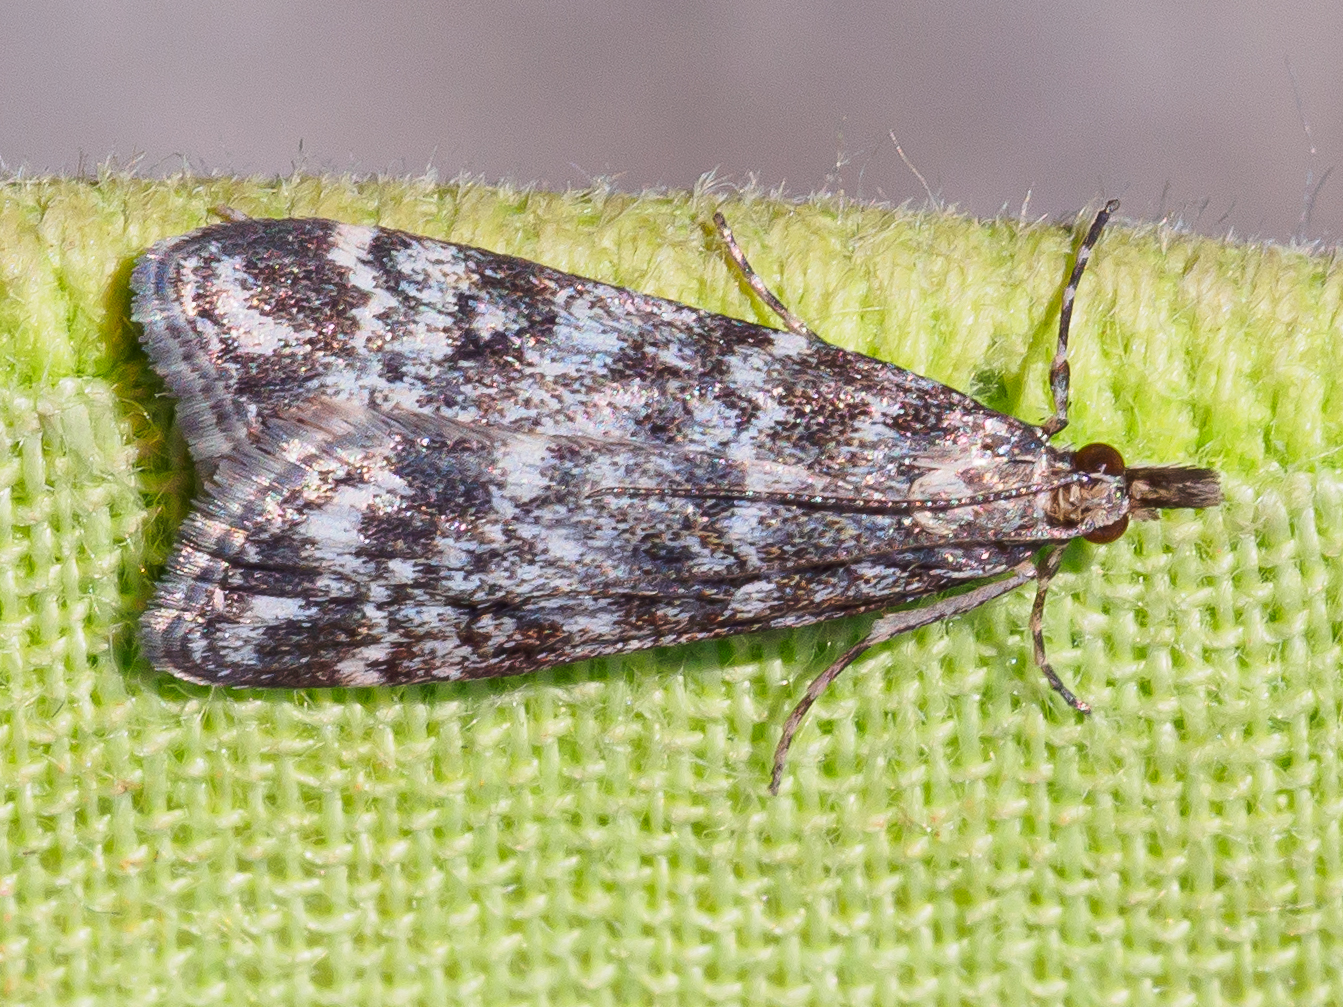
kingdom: Animalia
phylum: Arthropoda
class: Insecta
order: Lepidoptera
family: Crambidae
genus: Eudonia
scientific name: Eudonia sudetica
